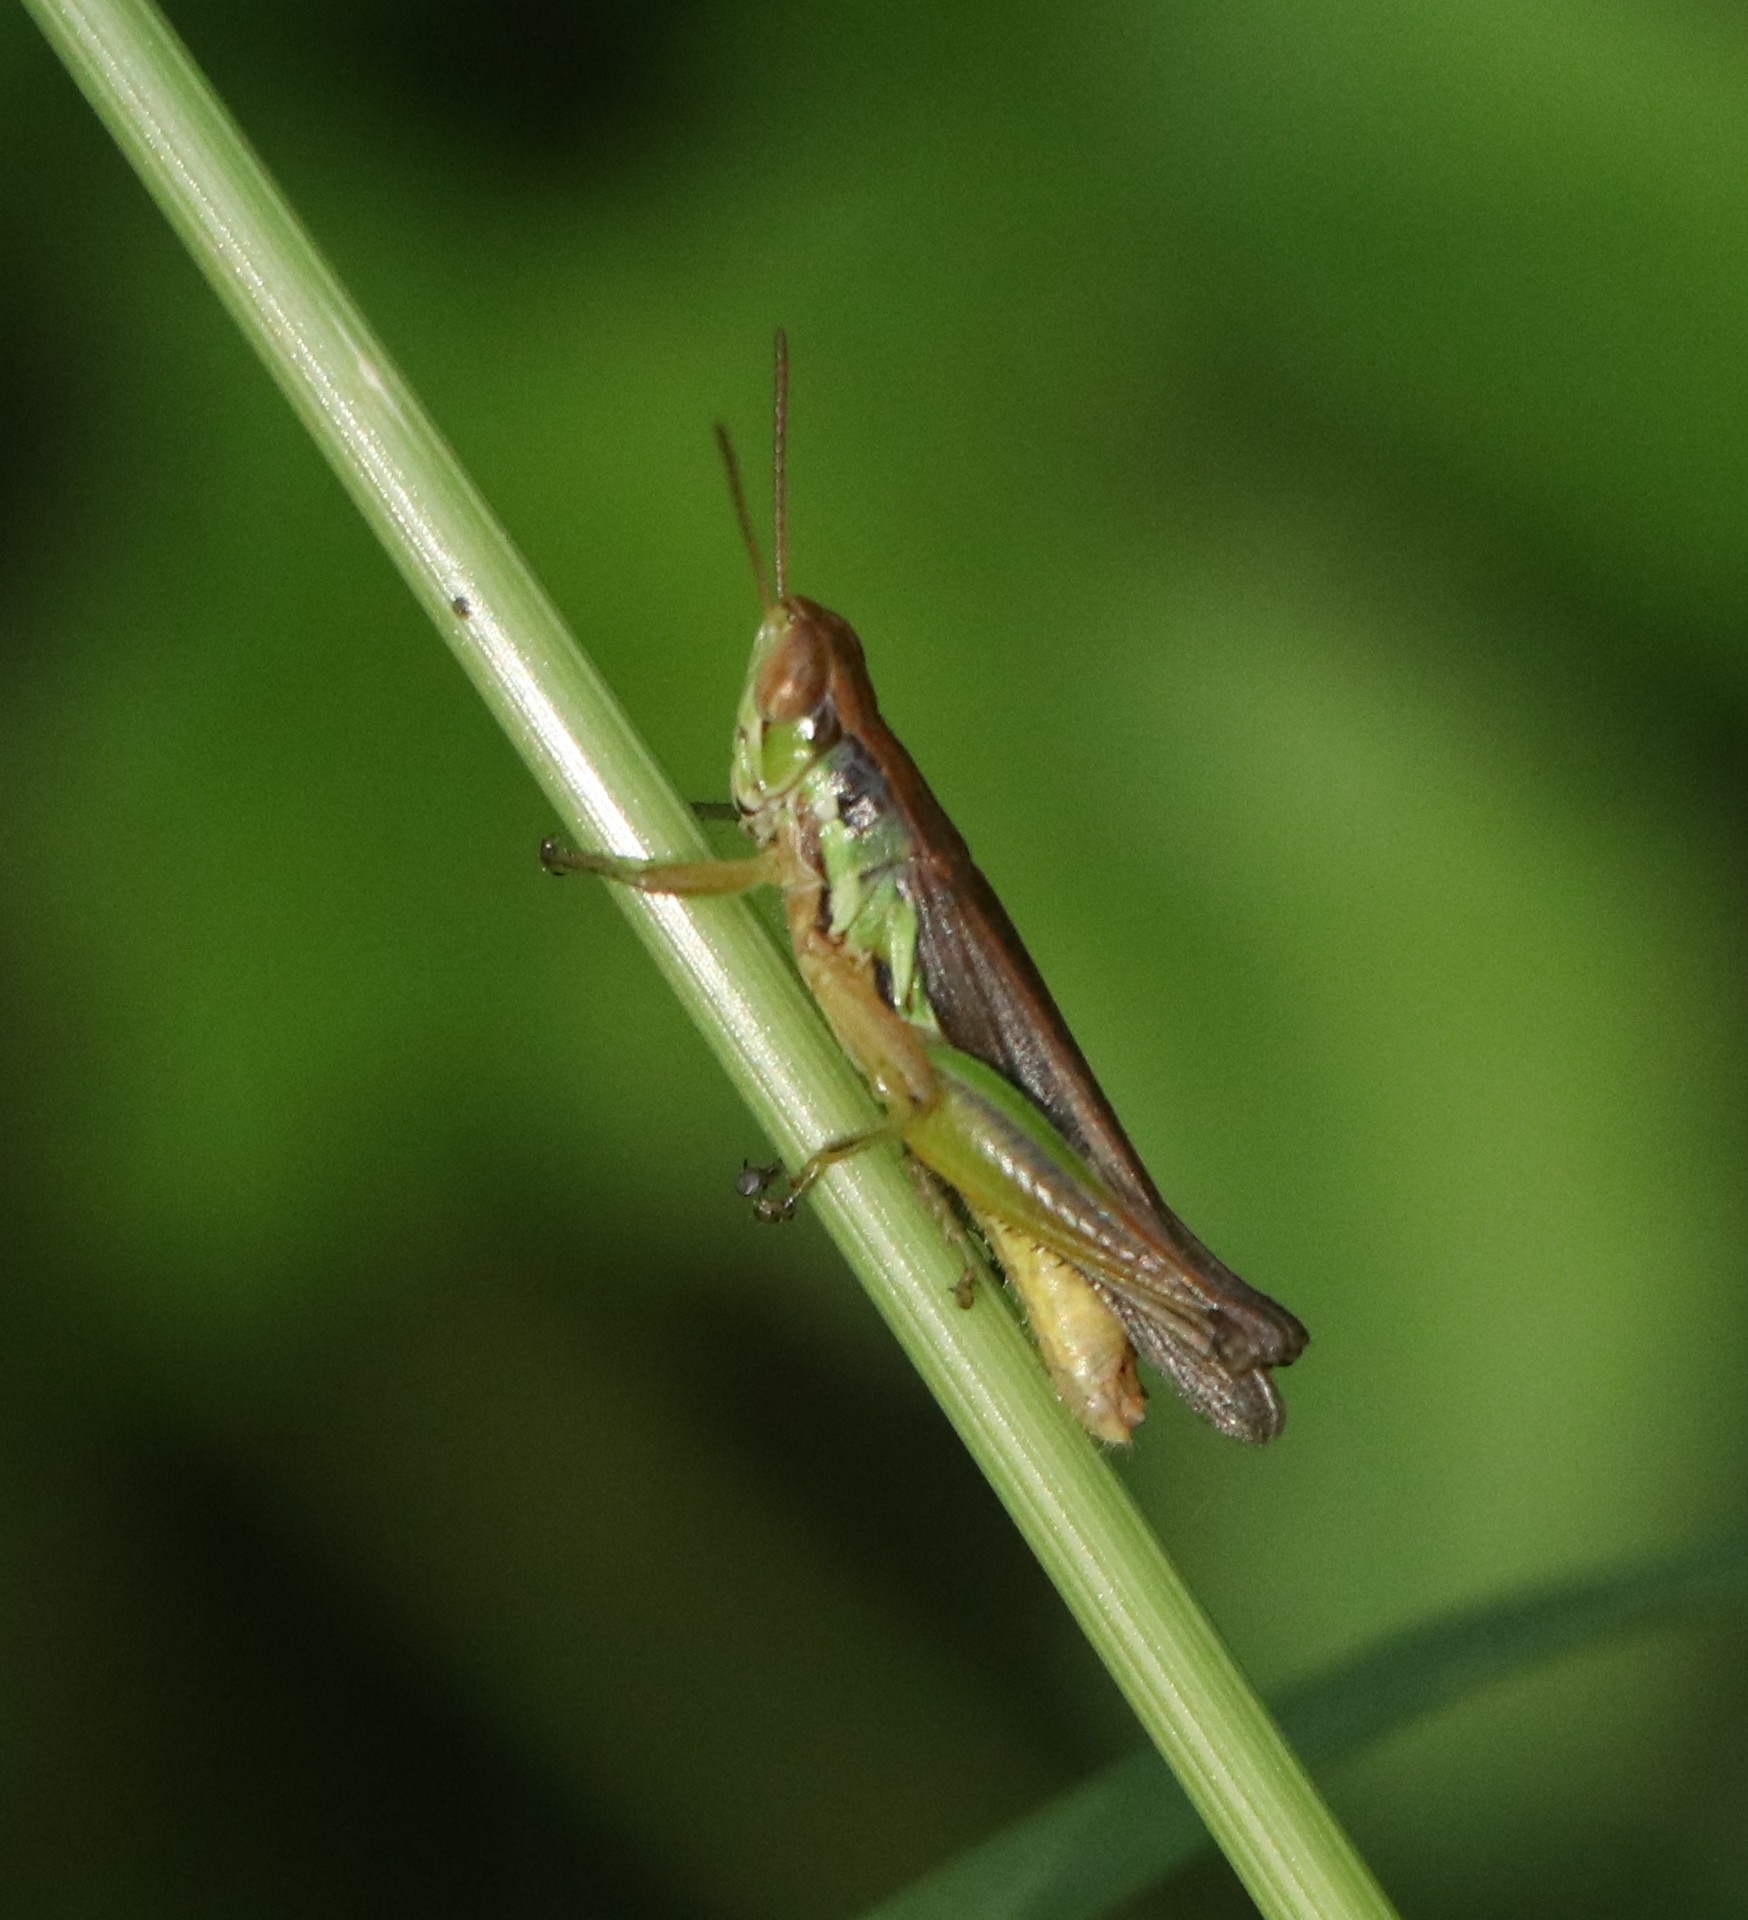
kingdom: Animalia
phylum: Arthropoda
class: Insecta
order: Orthoptera
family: Acrididae
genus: Spathosternum
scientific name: Spathosternum prasiniferum
